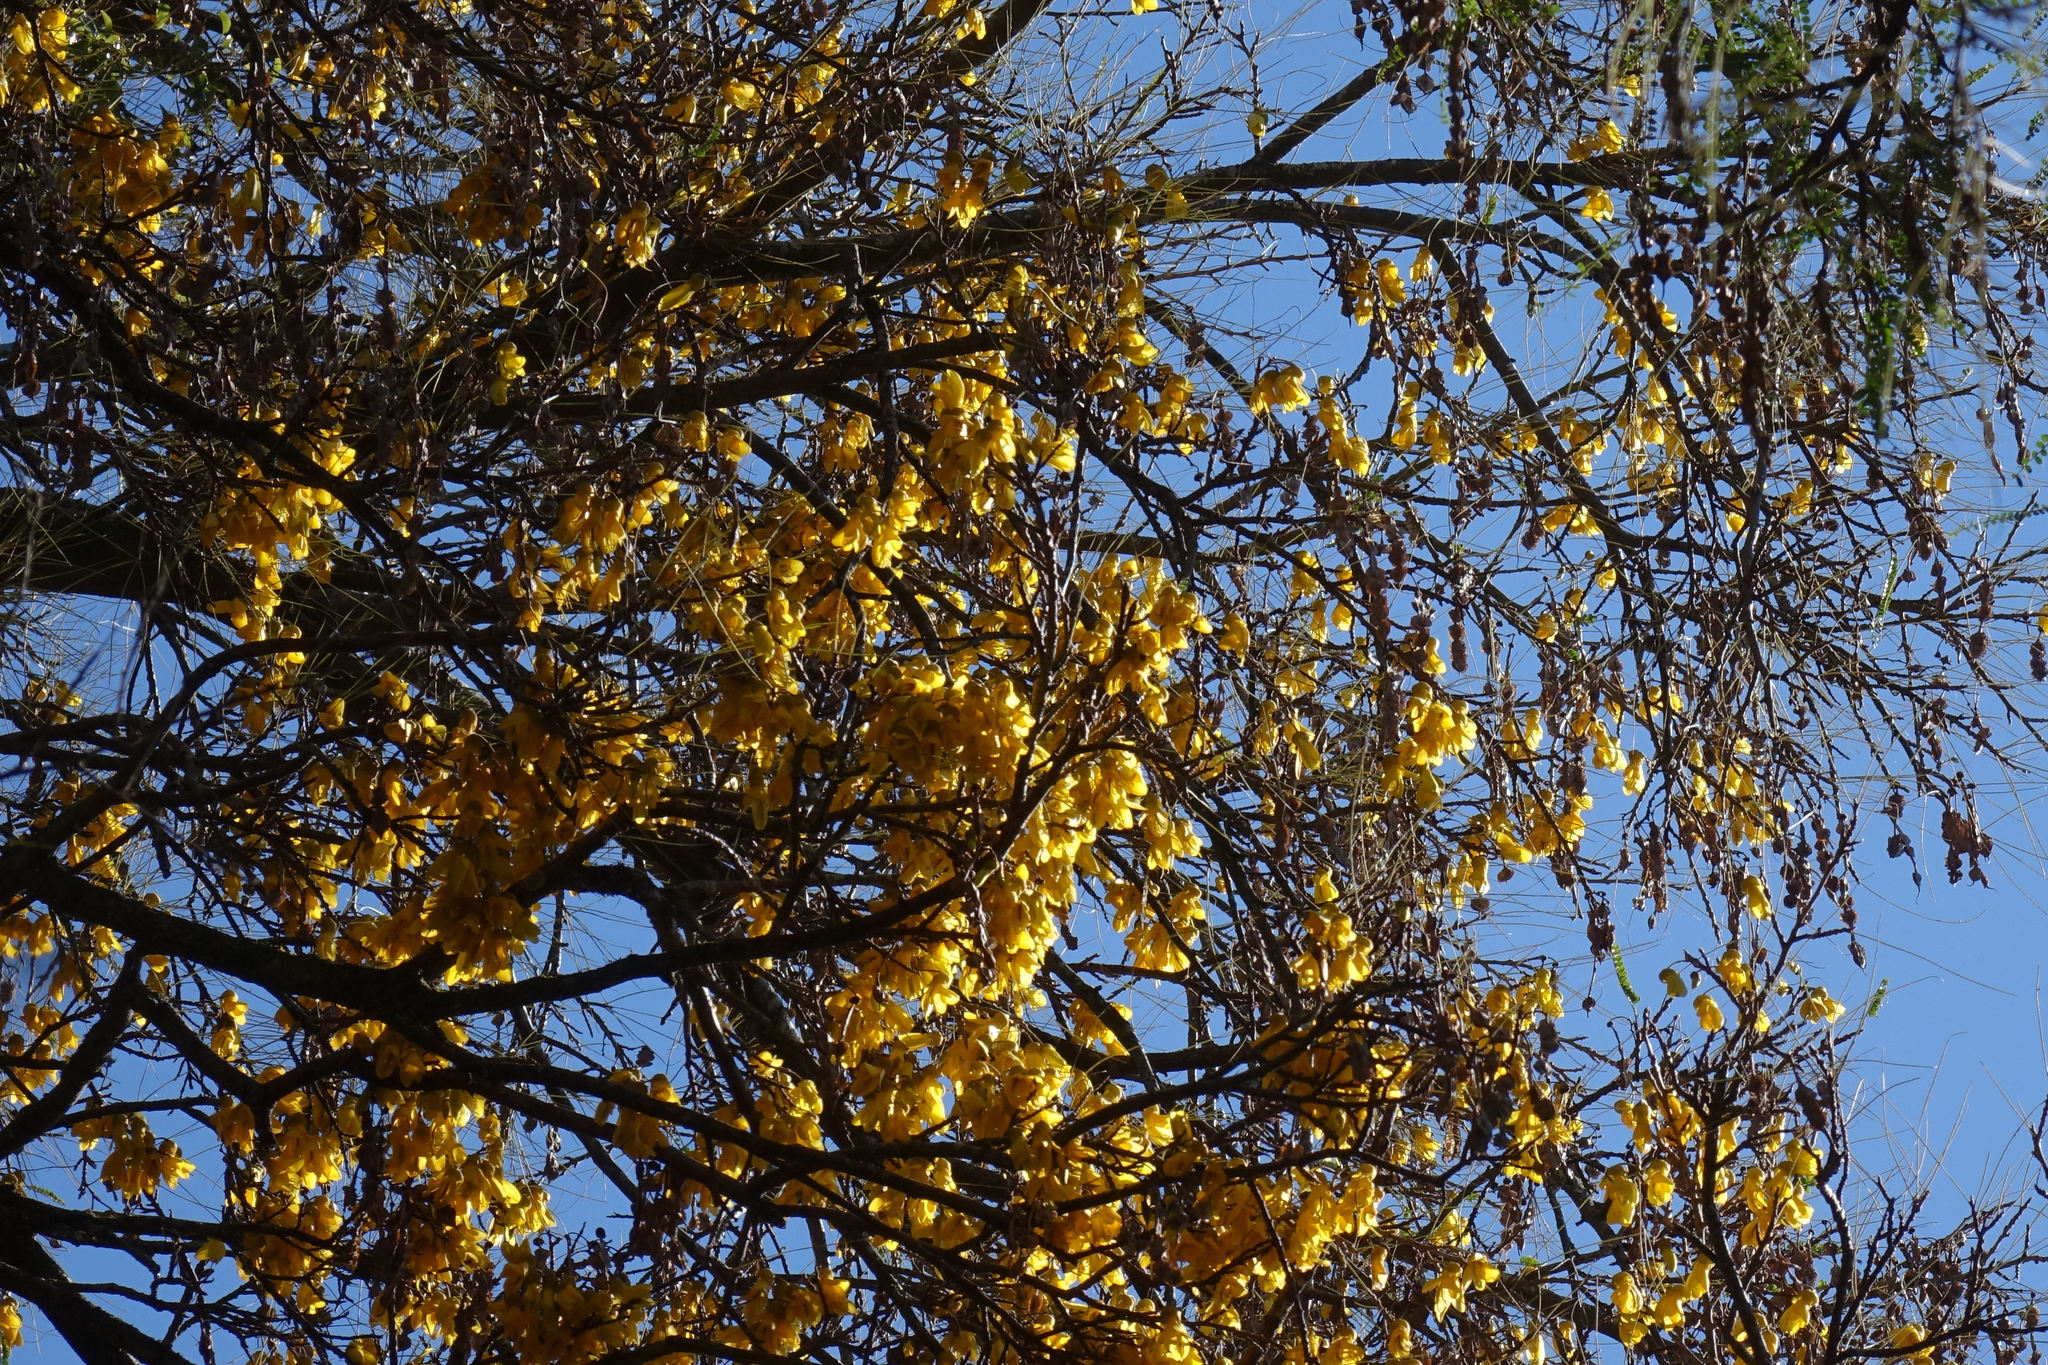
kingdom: Plantae
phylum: Tracheophyta
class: Magnoliopsida
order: Fabales
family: Fabaceae
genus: Sophora
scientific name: Sophora microphylla
